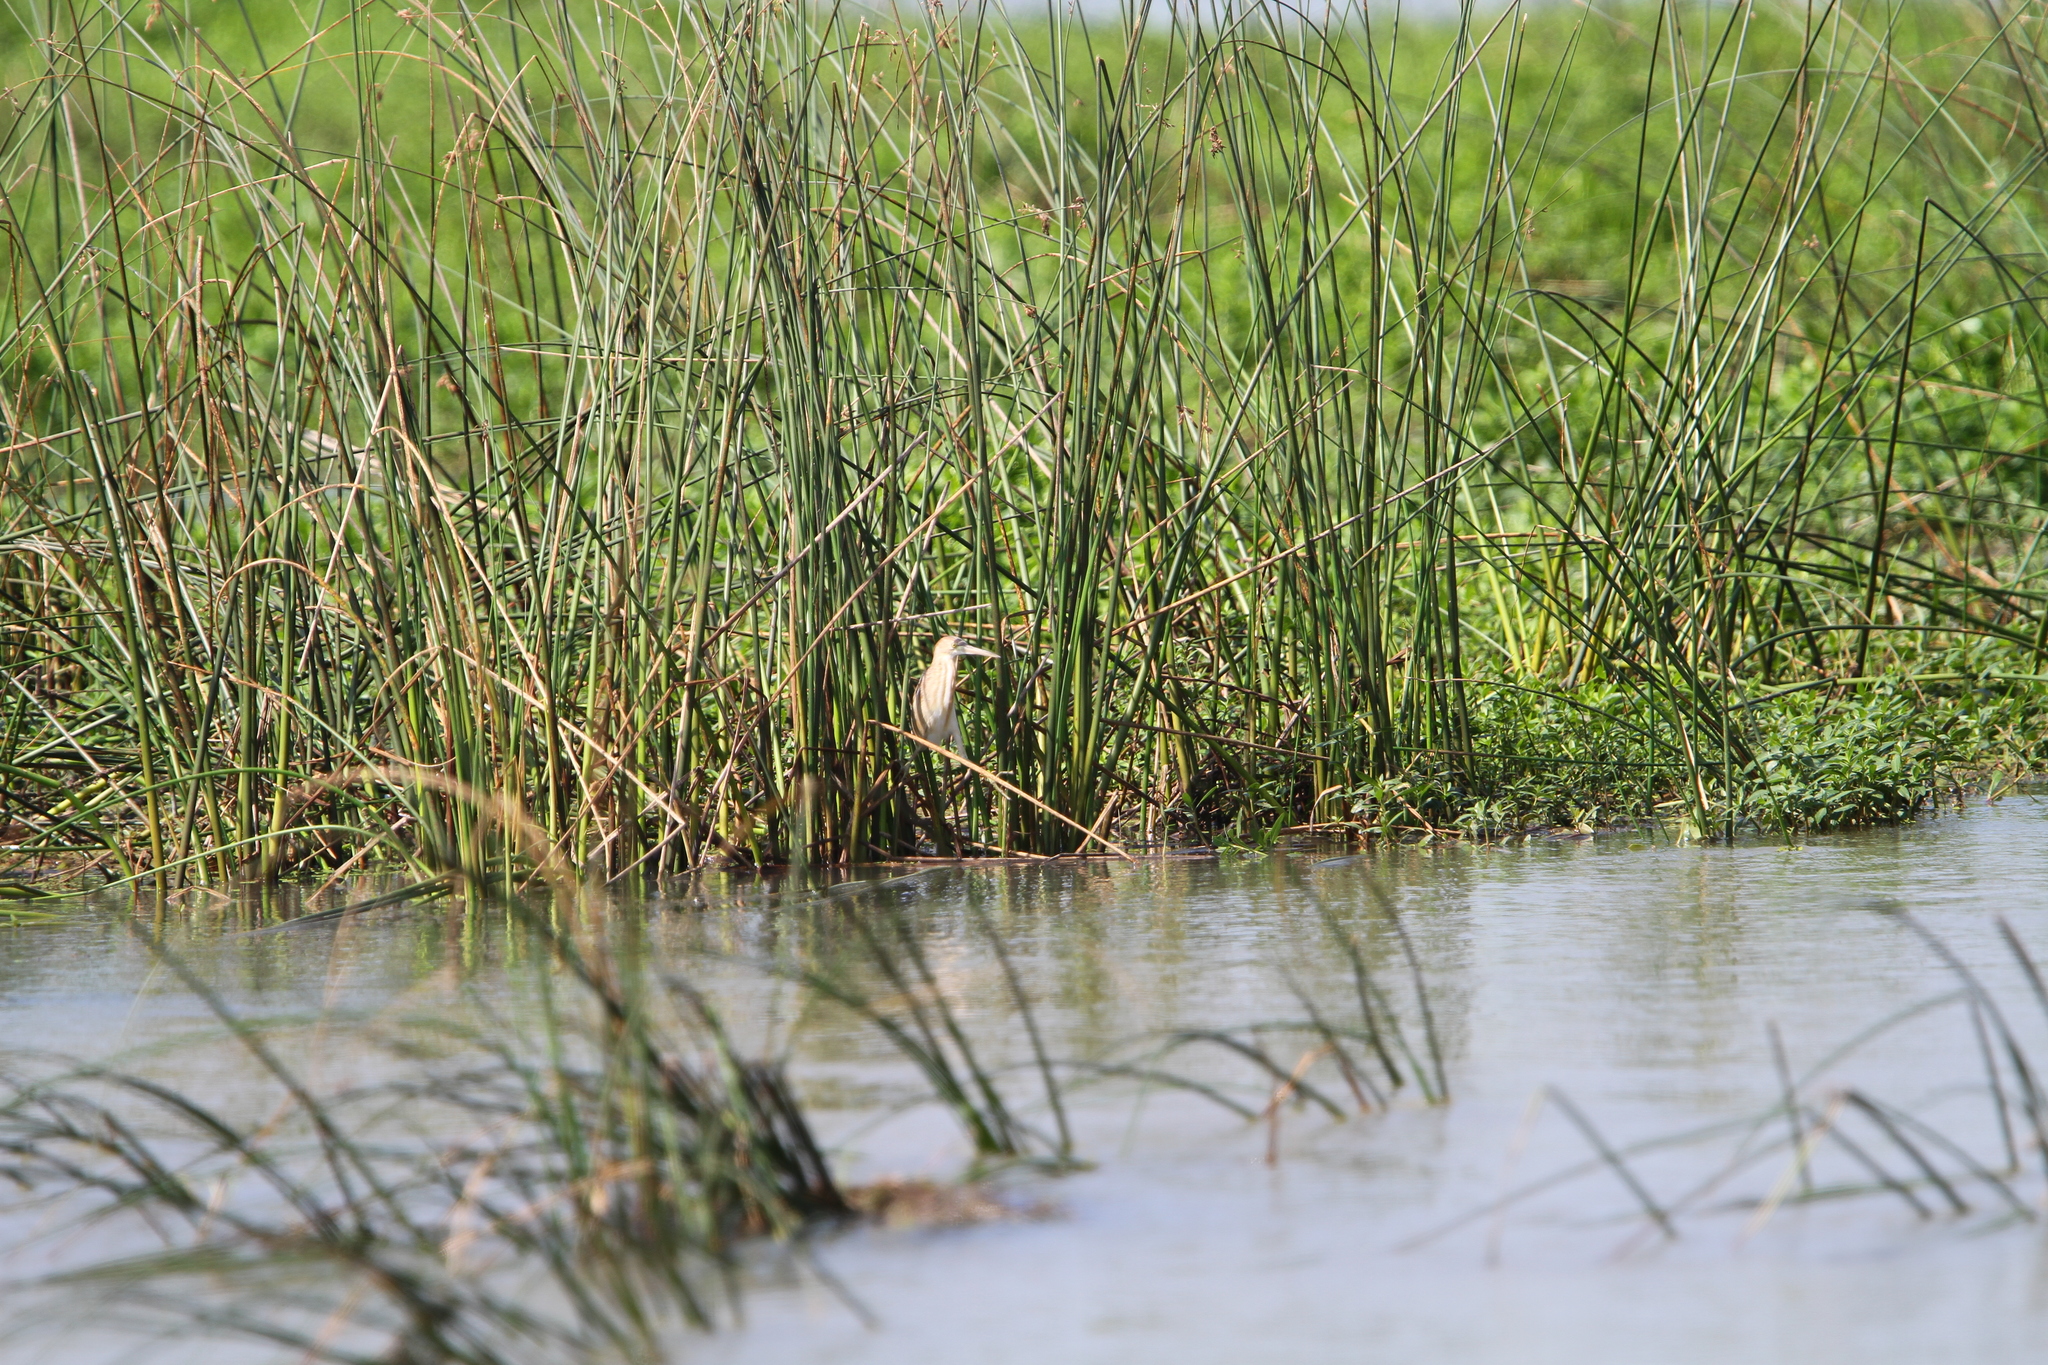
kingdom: Animalia
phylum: Chordata
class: Aves
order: Pelecaniformes
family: Ardeidae
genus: Ixobrychus
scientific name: Ixobrychus sinensis
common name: Yellow bittern
